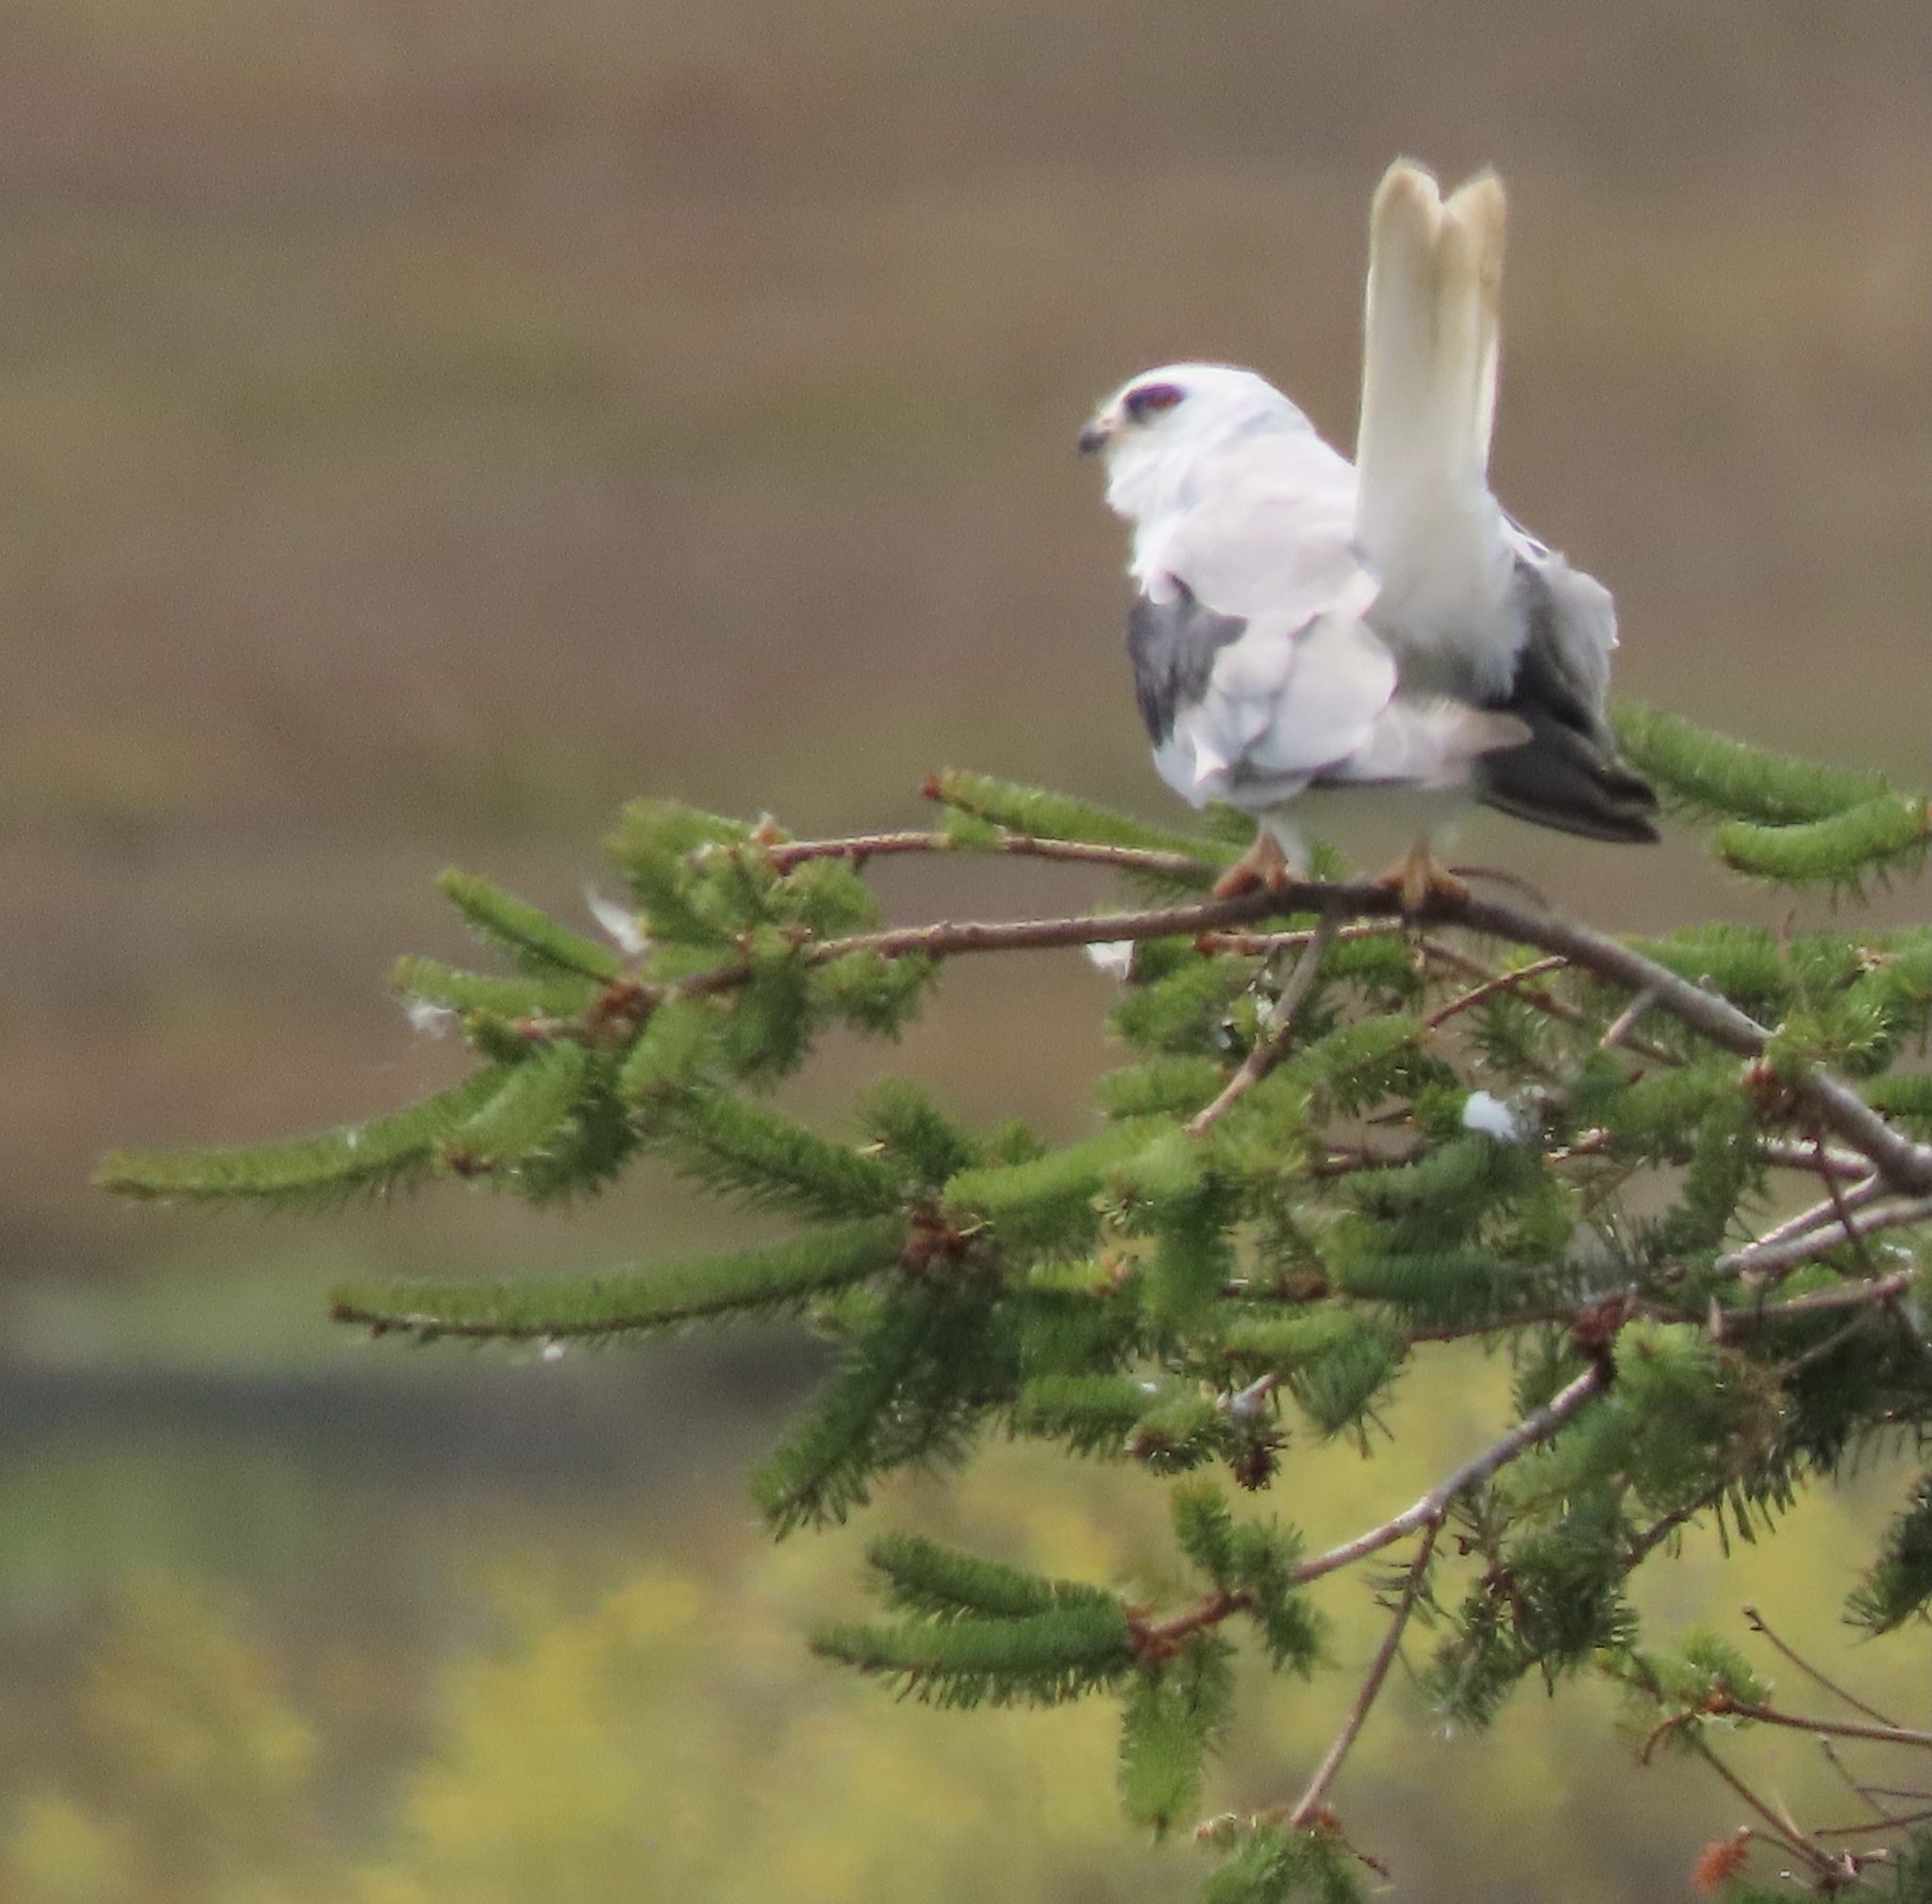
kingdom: Animalia
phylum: Chordata
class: Aves
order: Accipitriformes
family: Accipitridae
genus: Elanus
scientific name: Elanus leucurus
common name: White-tailed kite
